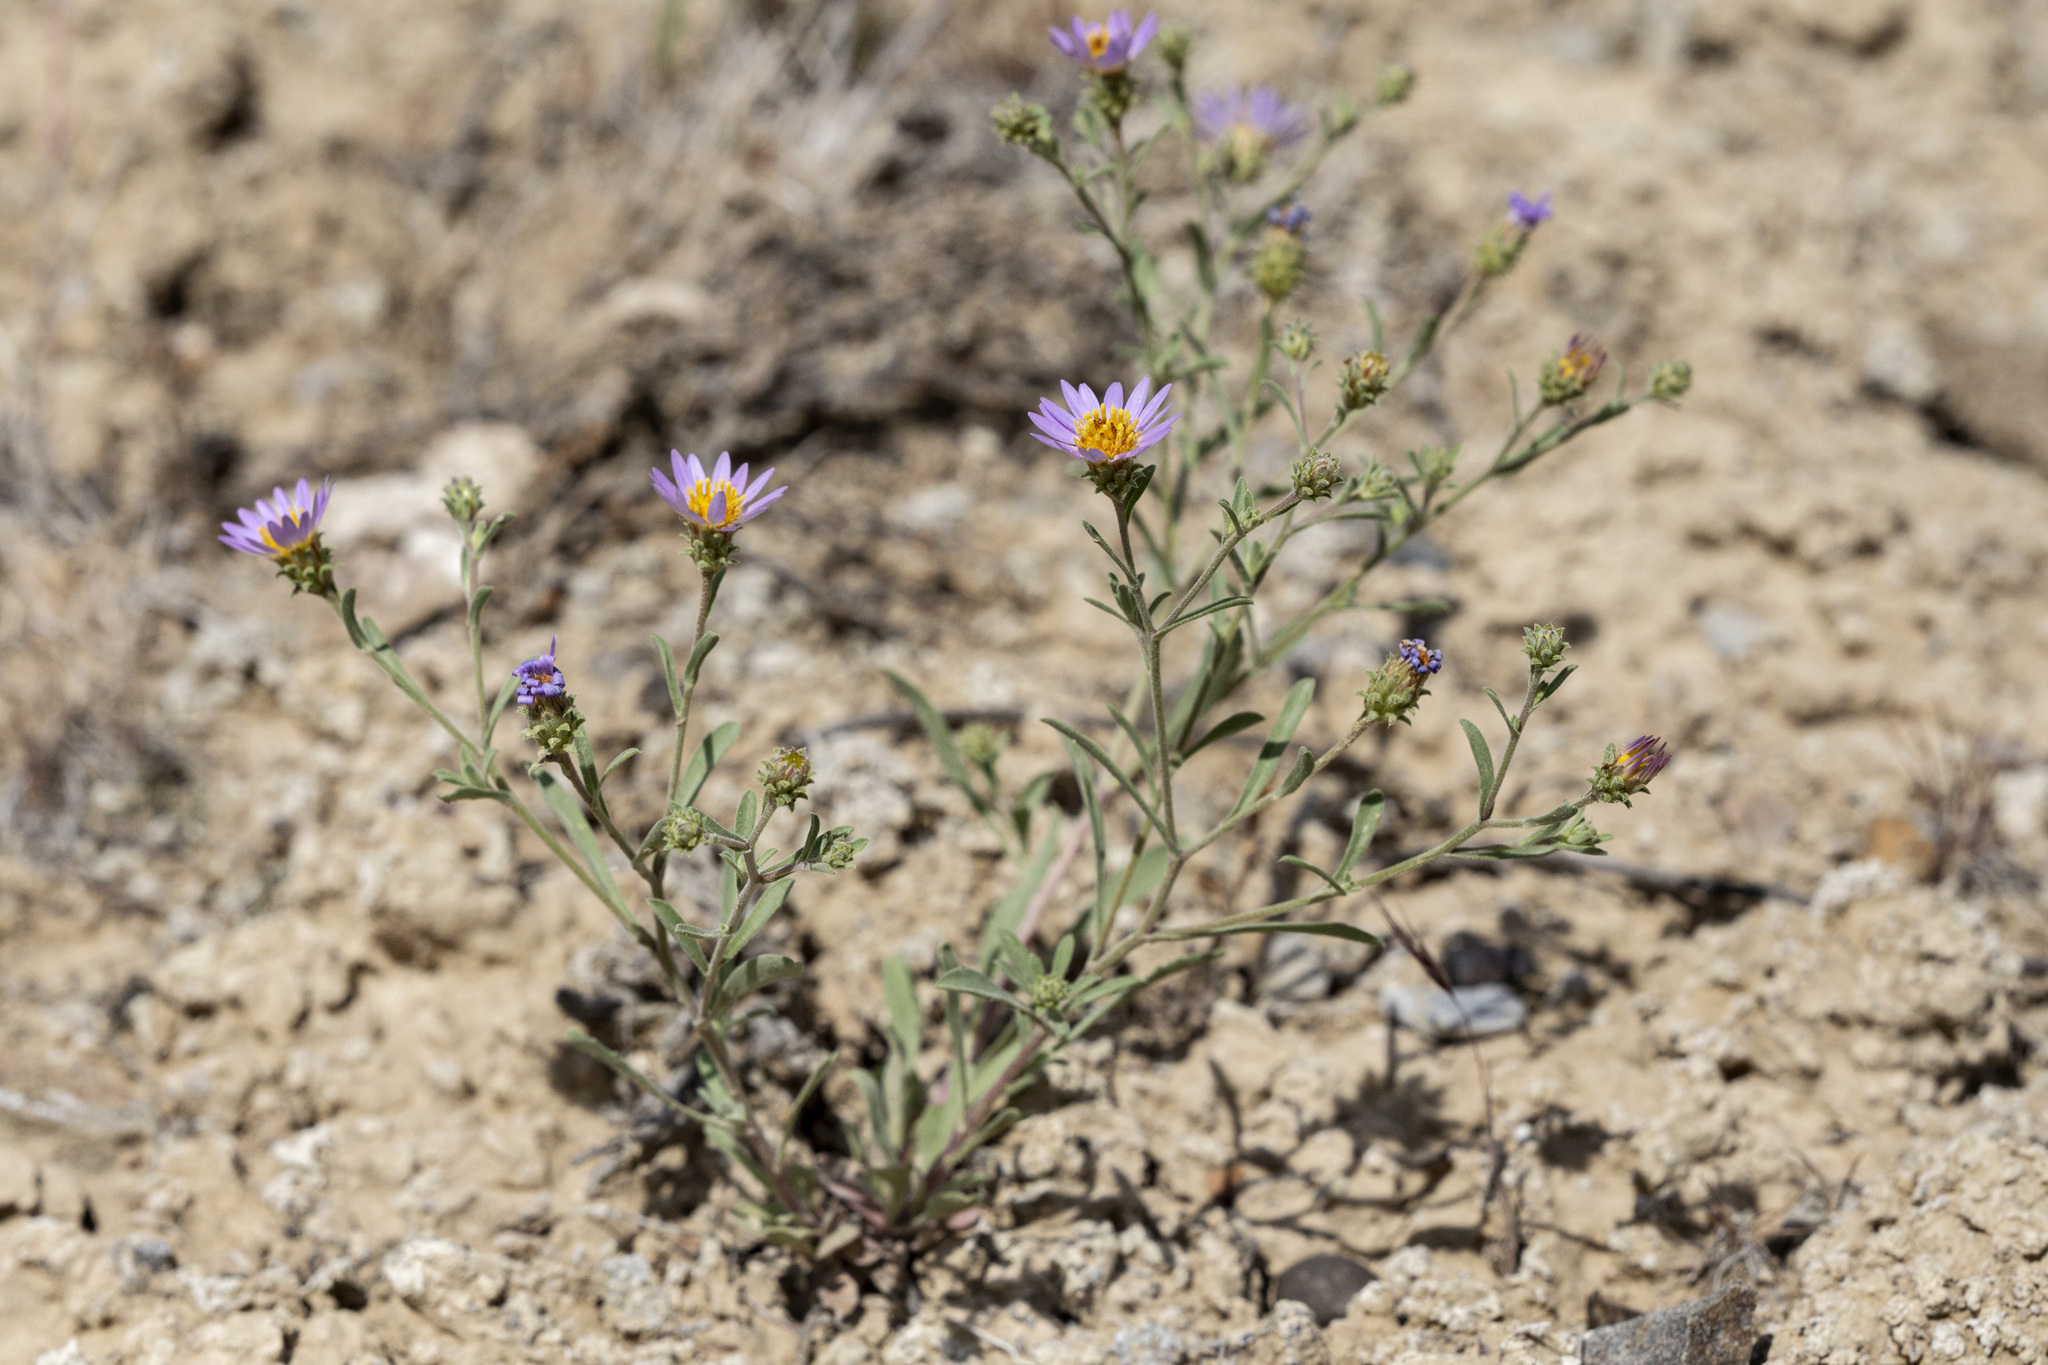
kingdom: Plantae
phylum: Tracheophyta
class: Magnoliopsida
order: Asterales
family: Asteraceae
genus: Dieteria
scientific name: Dieteria canescens
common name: Hoary-aster
